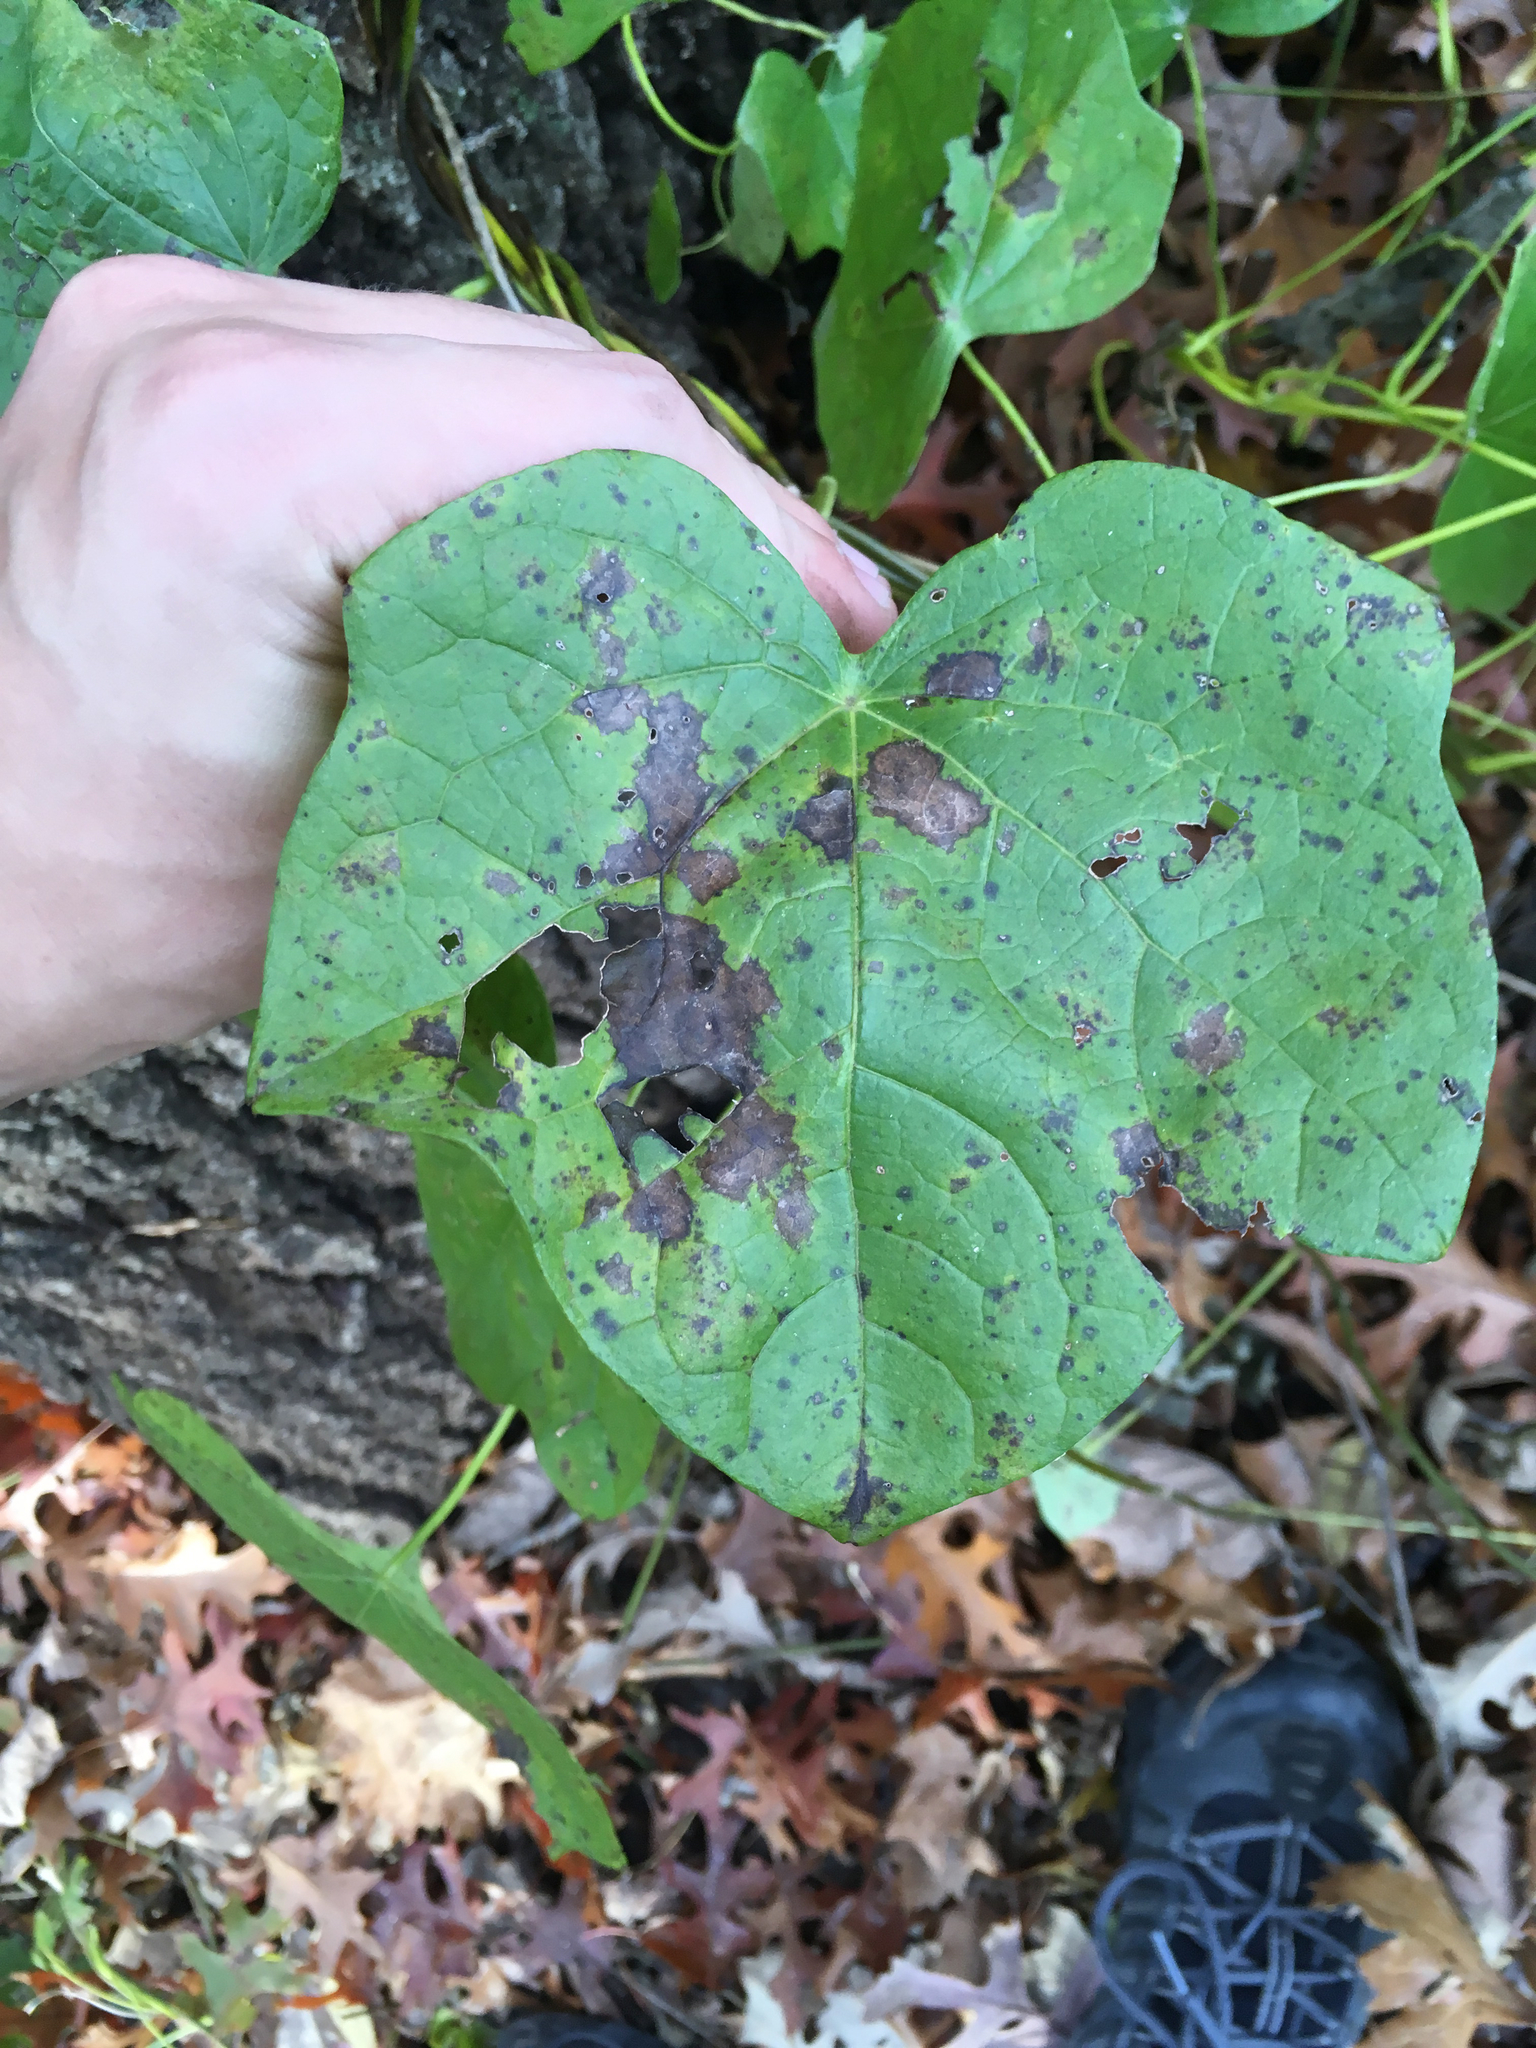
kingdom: Plantae
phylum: Tracheophyta
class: Magnoliopsida
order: Ranunculales
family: Menispermaceae
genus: Menispermum
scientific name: Menispermum canadense
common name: Moonseed
